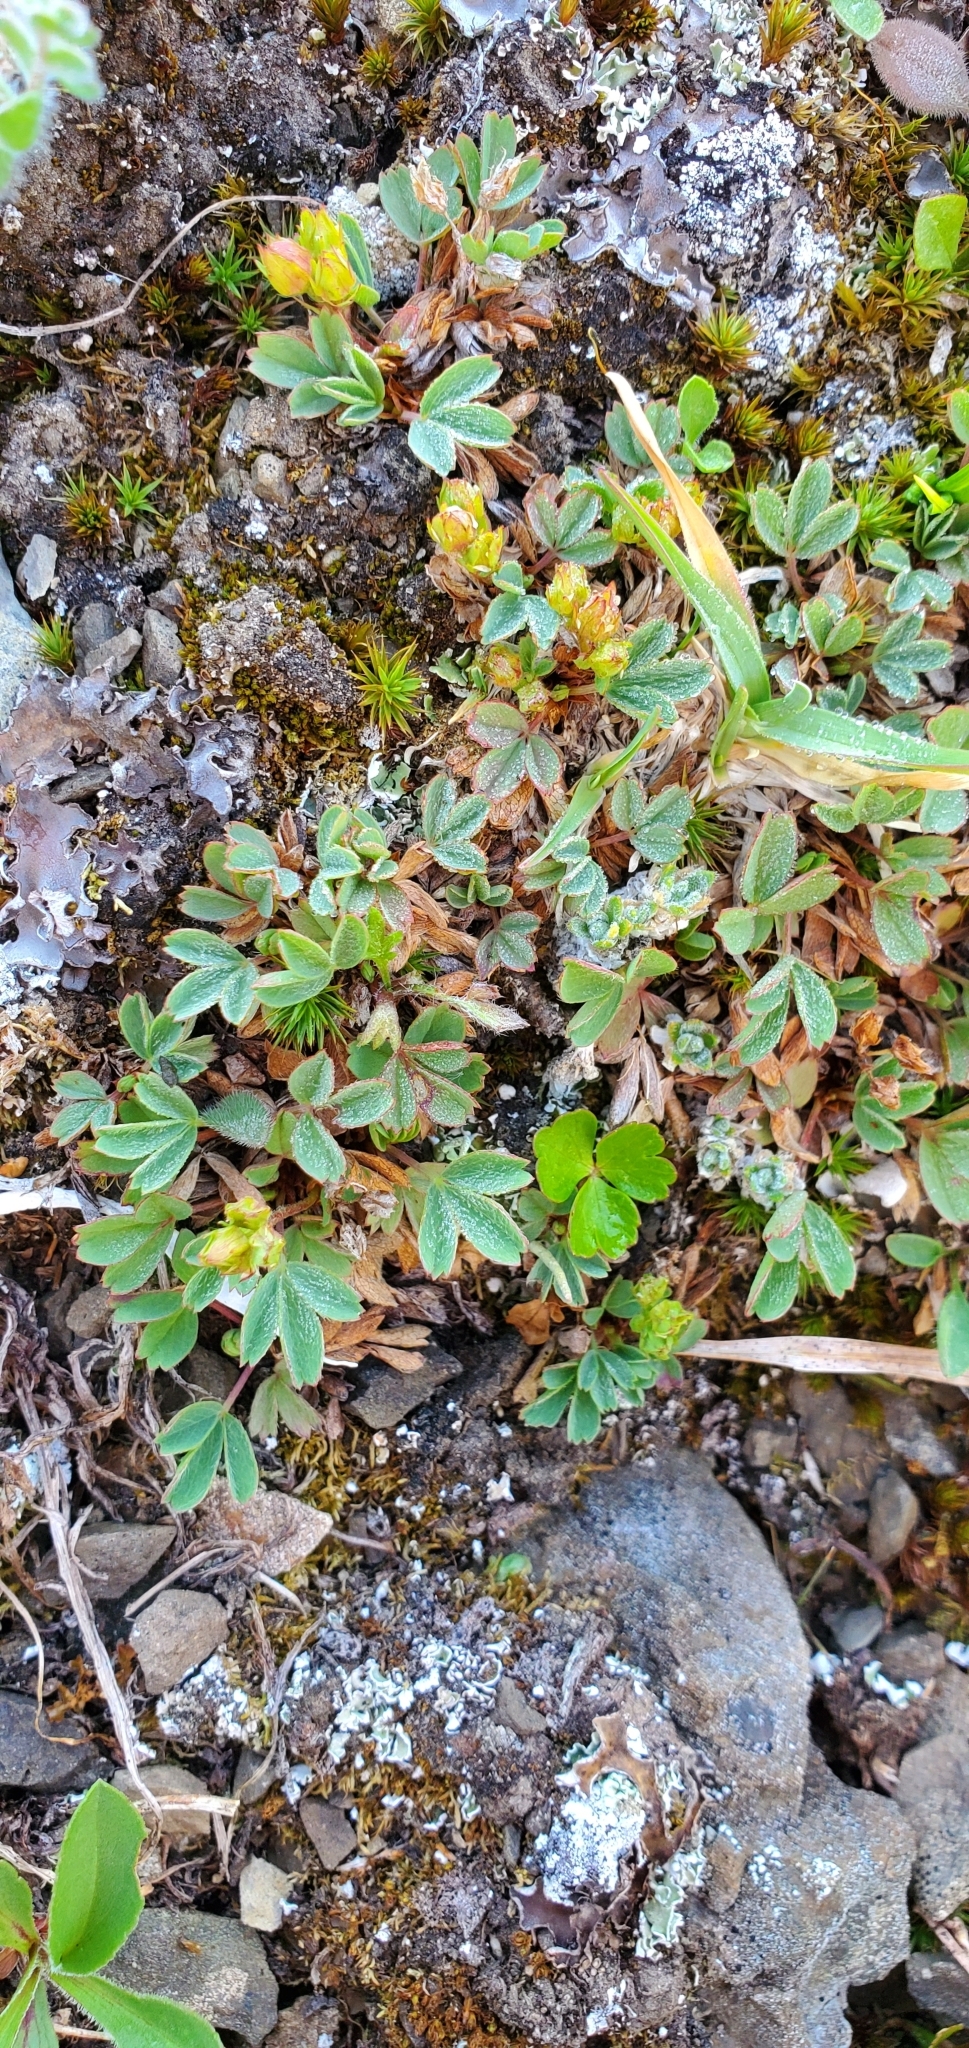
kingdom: Plantae
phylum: Tracheophyta
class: Magnoliopsida
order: Rosales
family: Rosaceae
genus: Sibbaldia
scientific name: Sibbaldia procumbens
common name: Creeping sibbaldia
